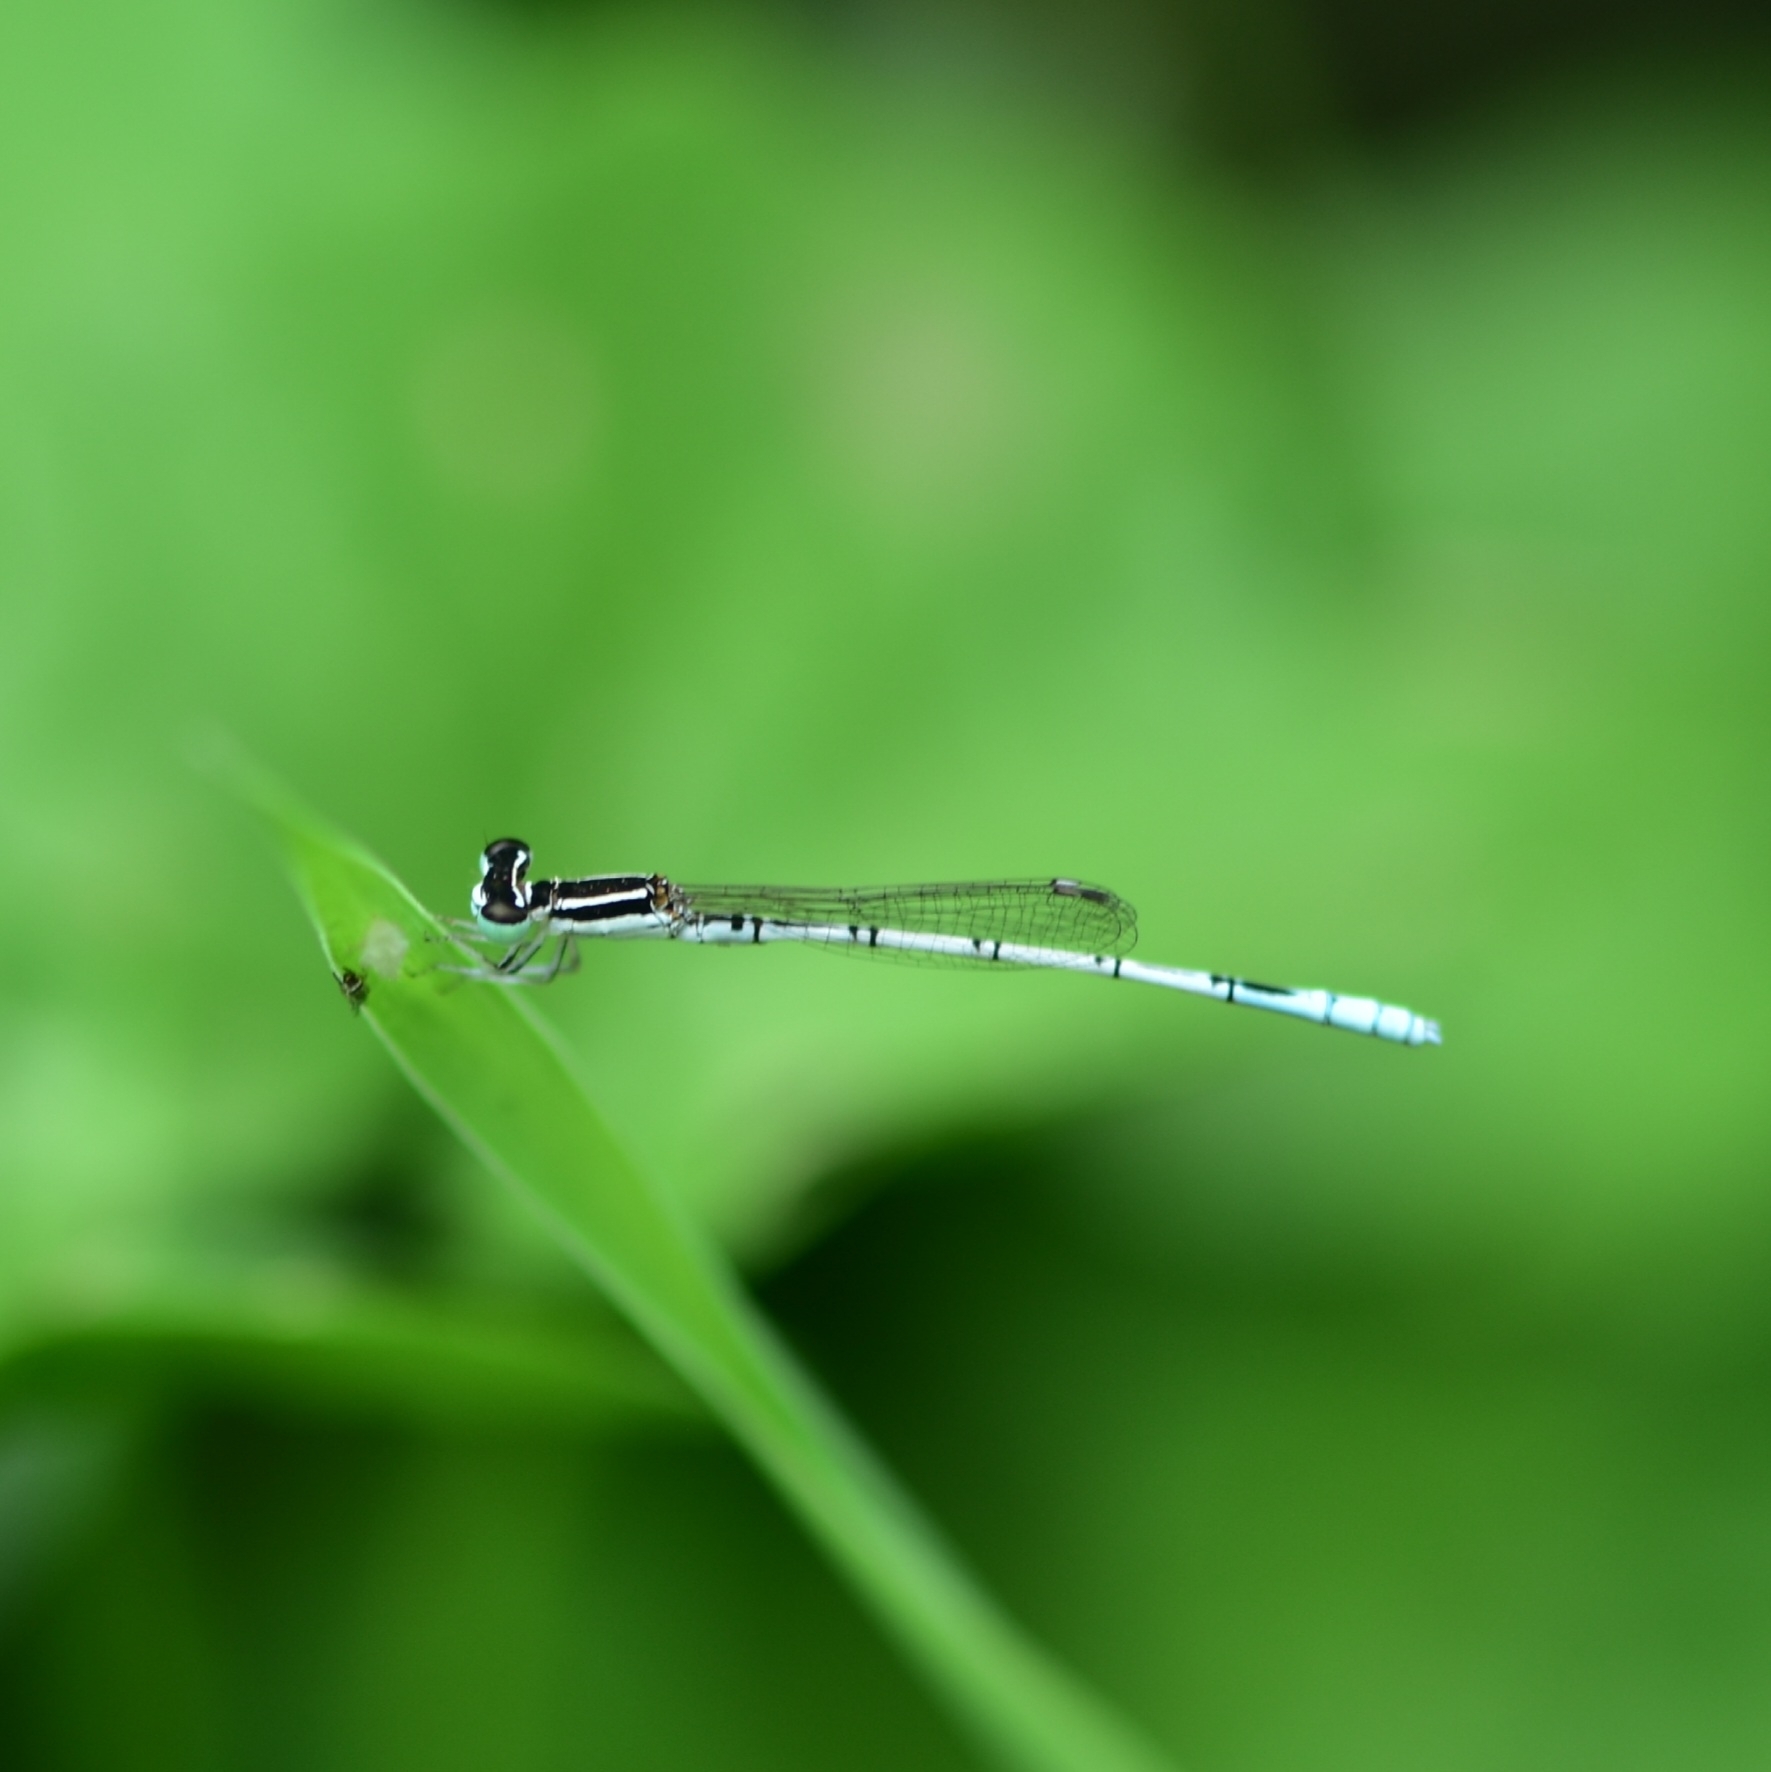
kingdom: Animalia
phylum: Arthropoda
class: Insecta
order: Odonata
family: Coenagrionidae
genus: Agriocnemis
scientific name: Agriocnemis pieris
